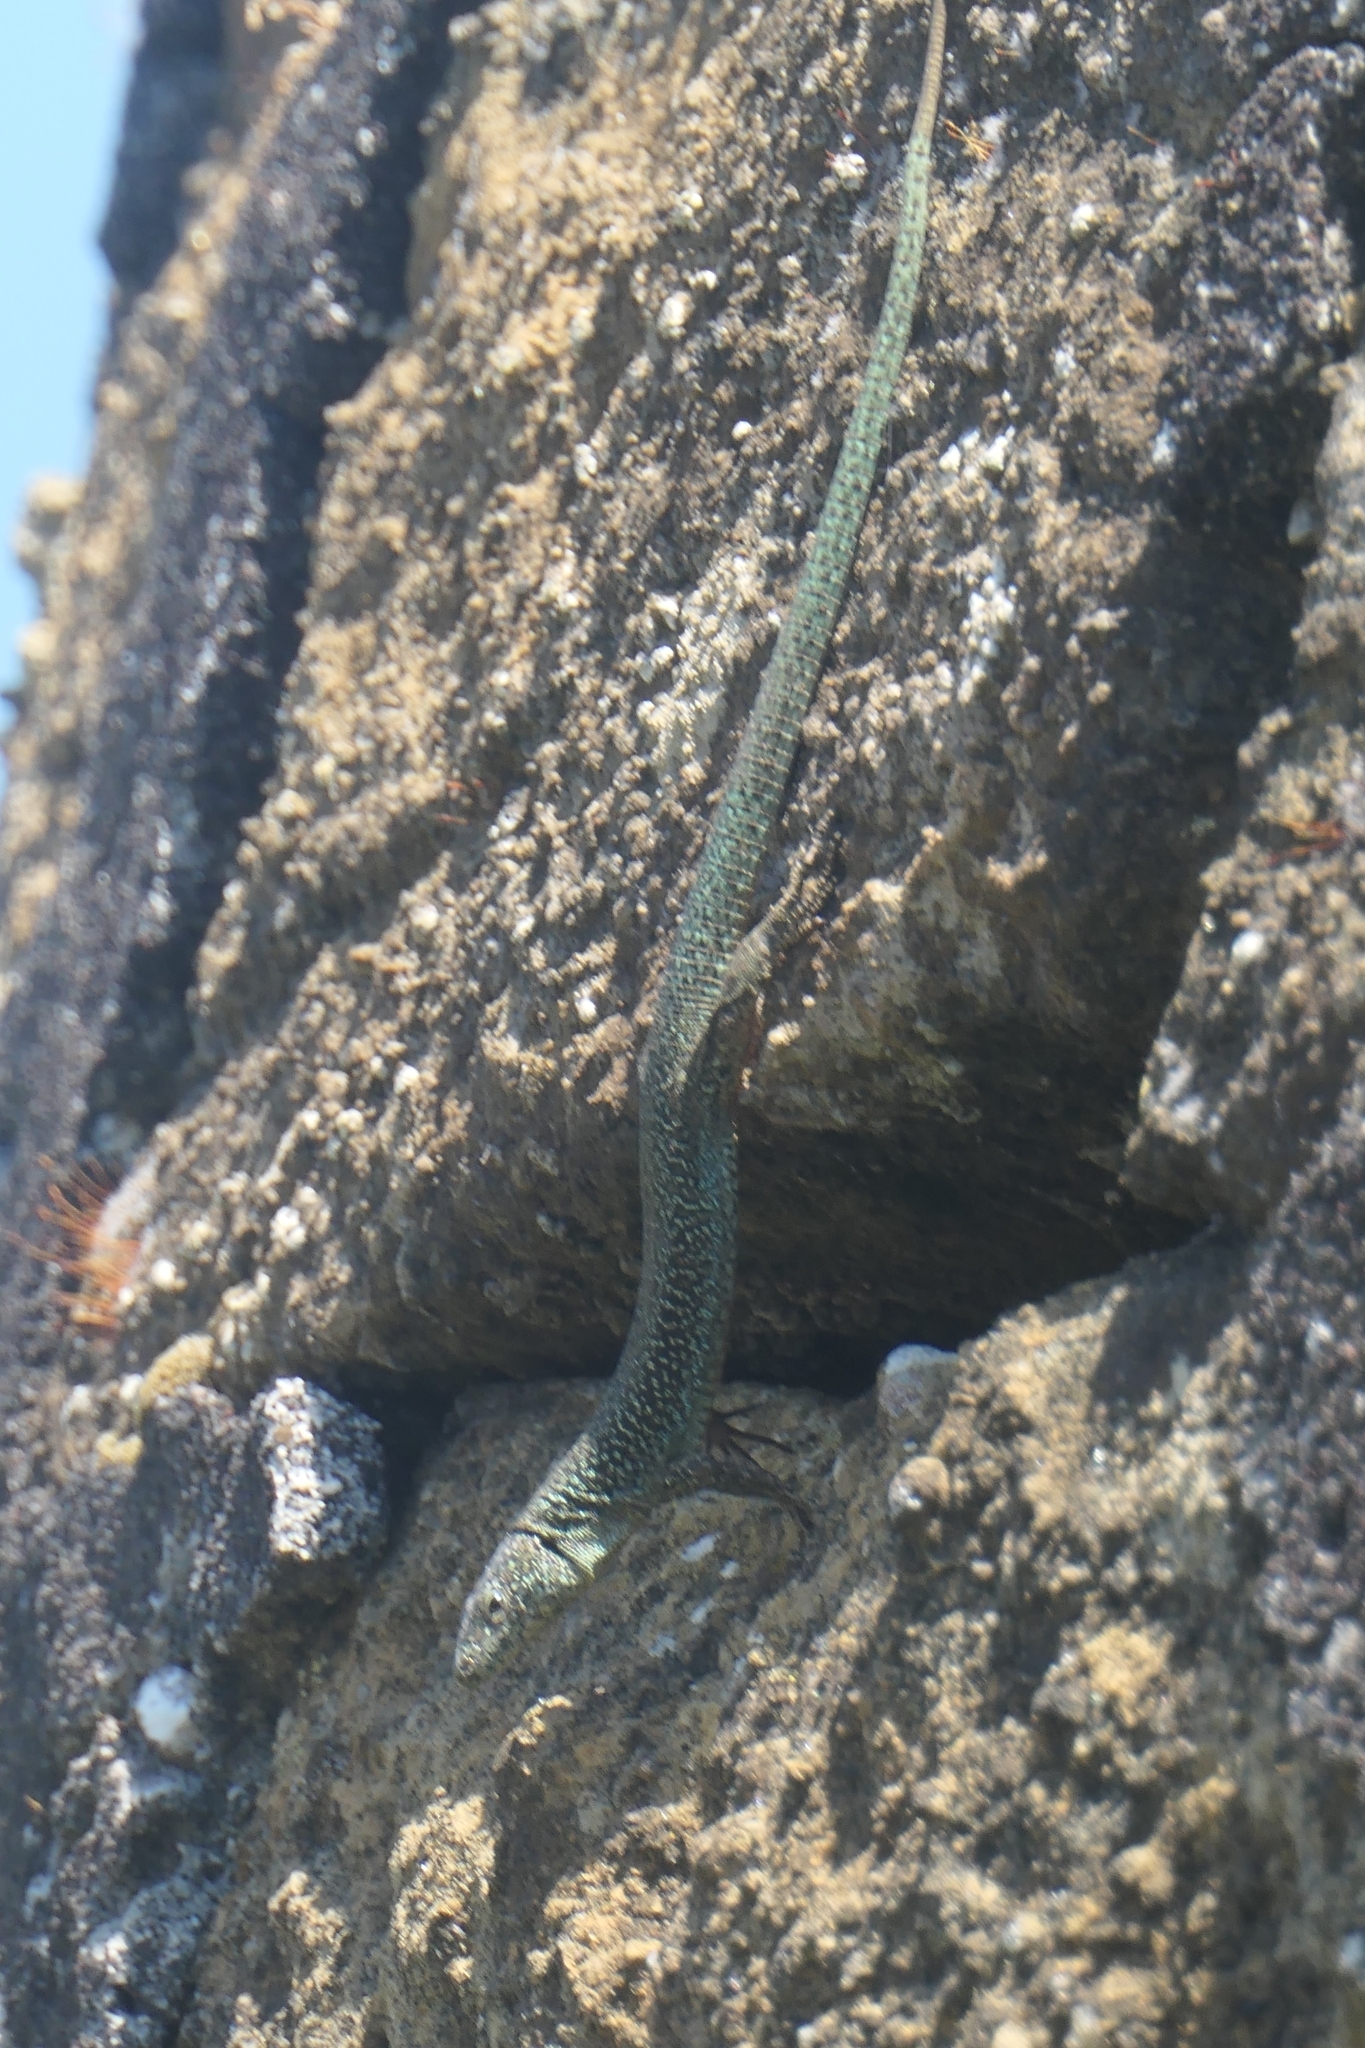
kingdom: Animalia
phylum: Chordata
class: Squamata
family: Lacertidae
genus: Teira
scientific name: Teira dugesii
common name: Madeira lizard
